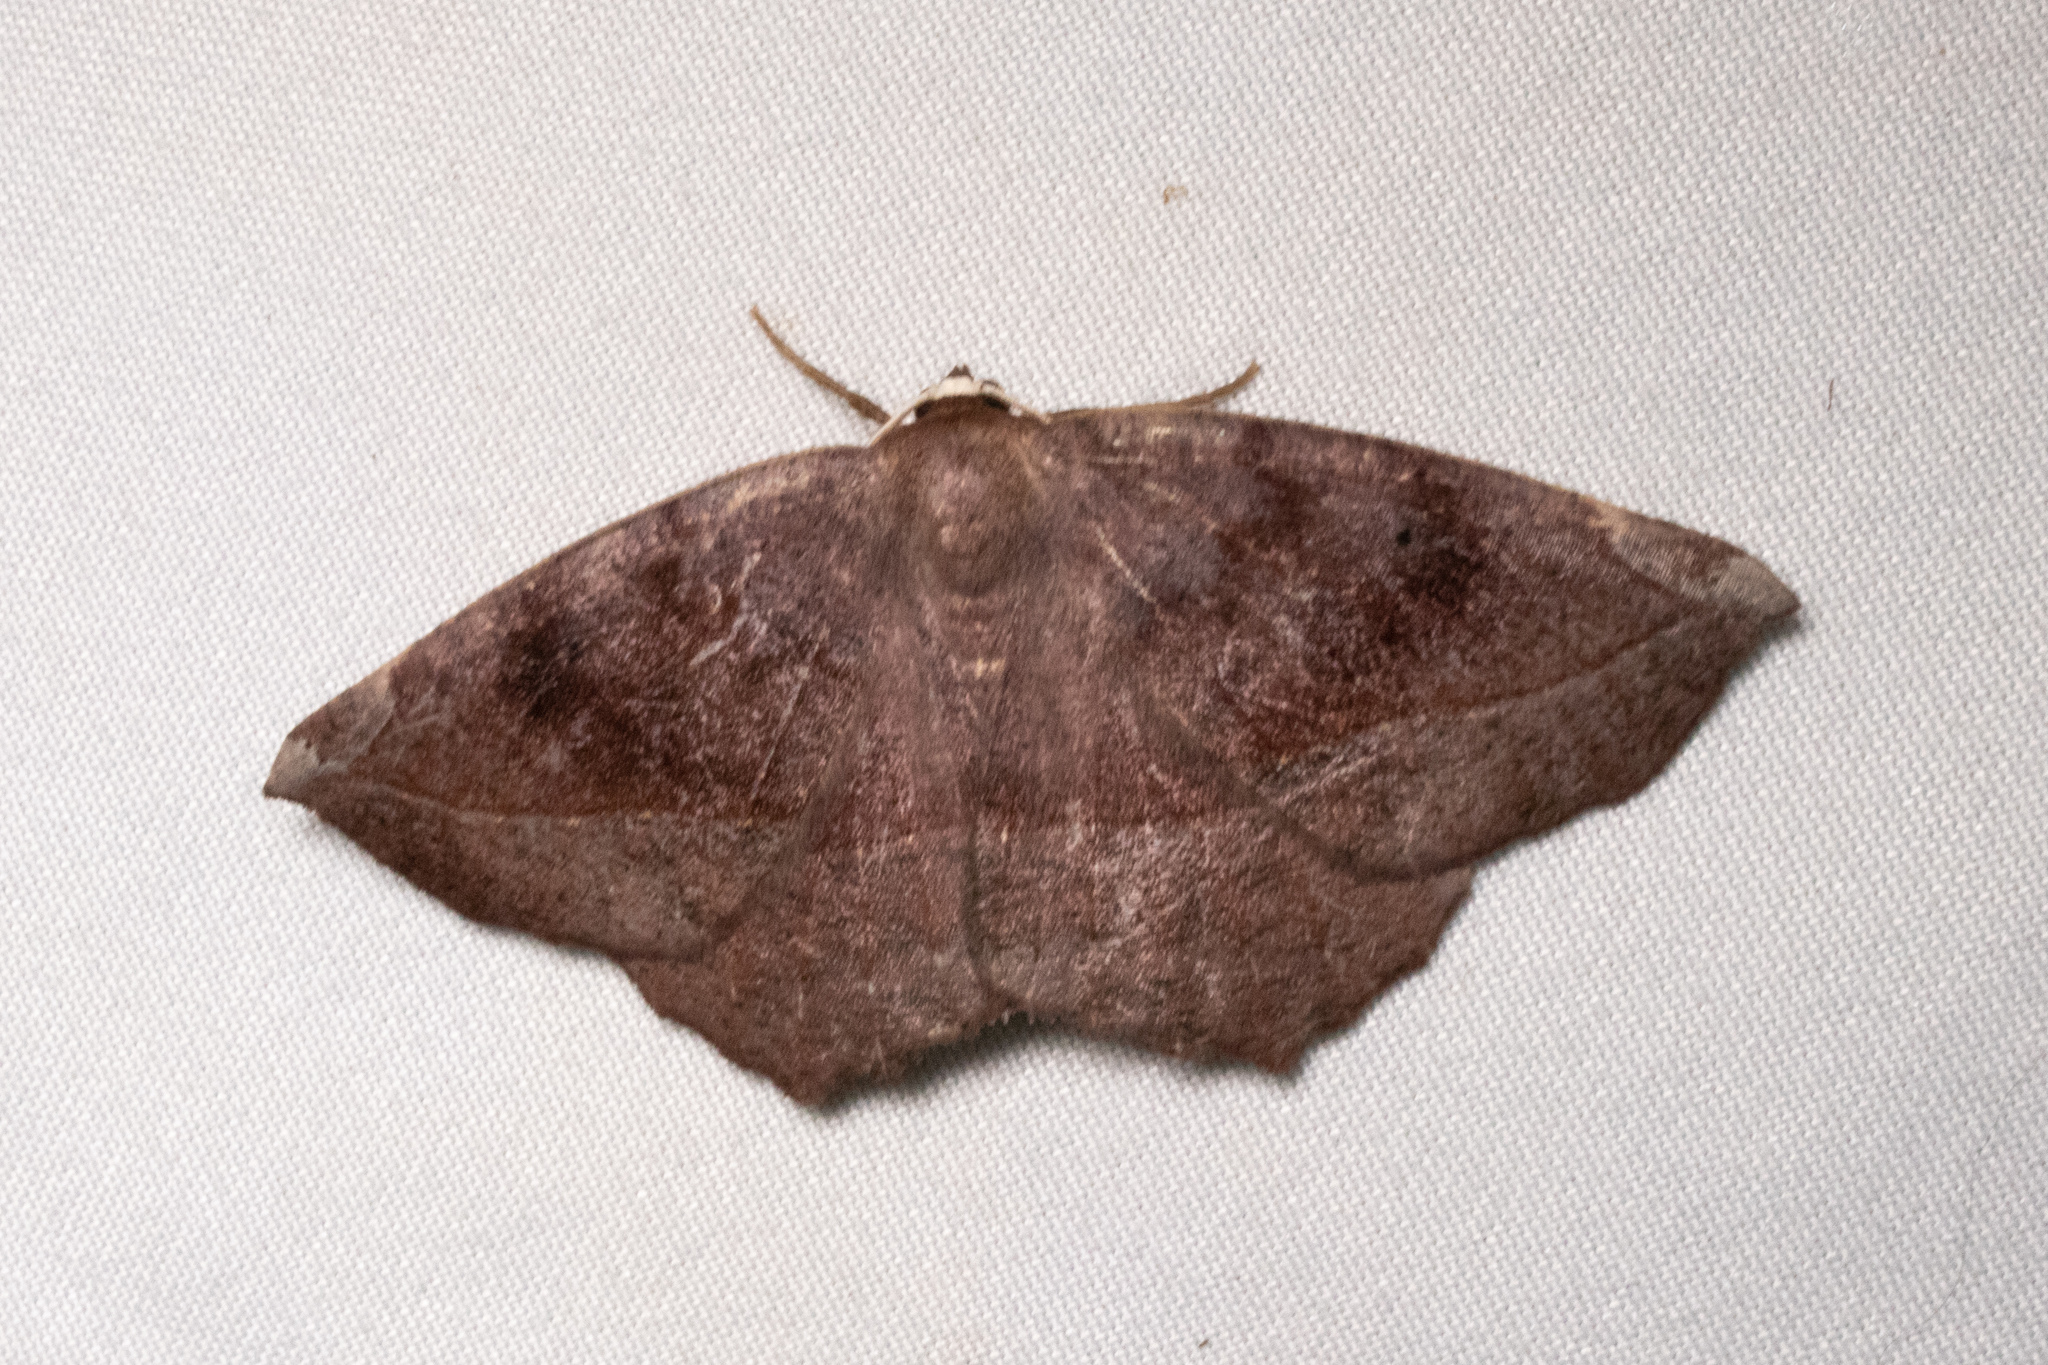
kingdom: Animalia
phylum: Arthropoda
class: Insecta
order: Lepidoptera
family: Geometridae
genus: Eutrapela
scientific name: Eutrapela clemataria
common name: Curved-toothed geometer
